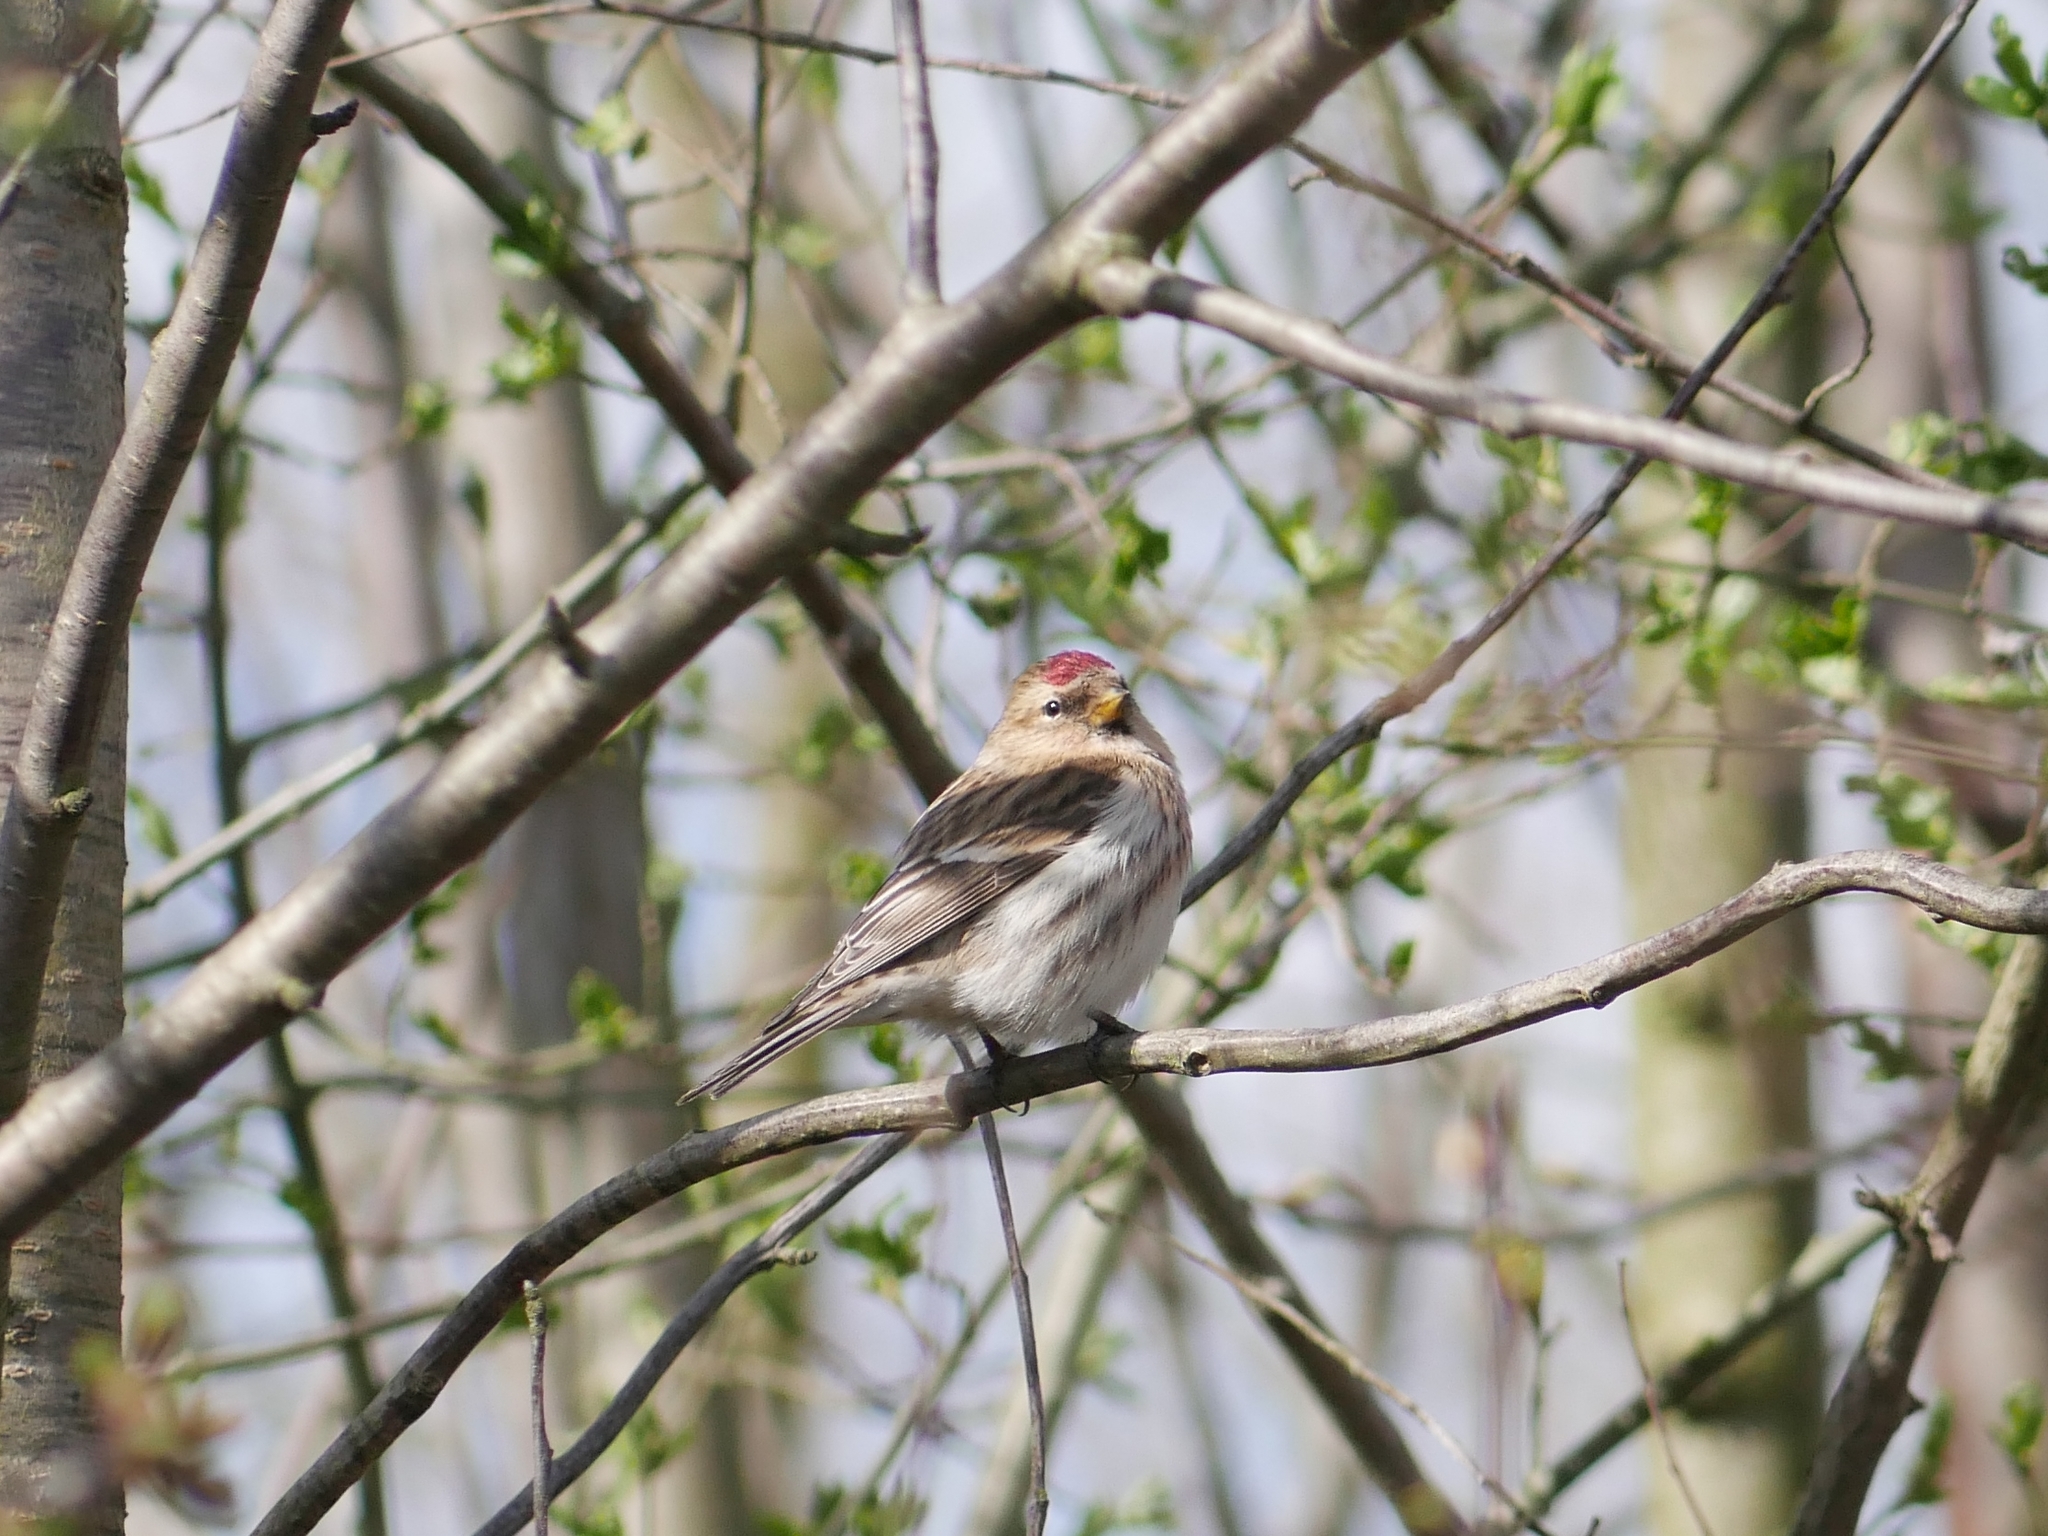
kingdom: Animalia
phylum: Chordata
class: Aves
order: Passeriformes
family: Fringillidae
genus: Acanthis
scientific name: Acanthis flammea
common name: Common redpoll
